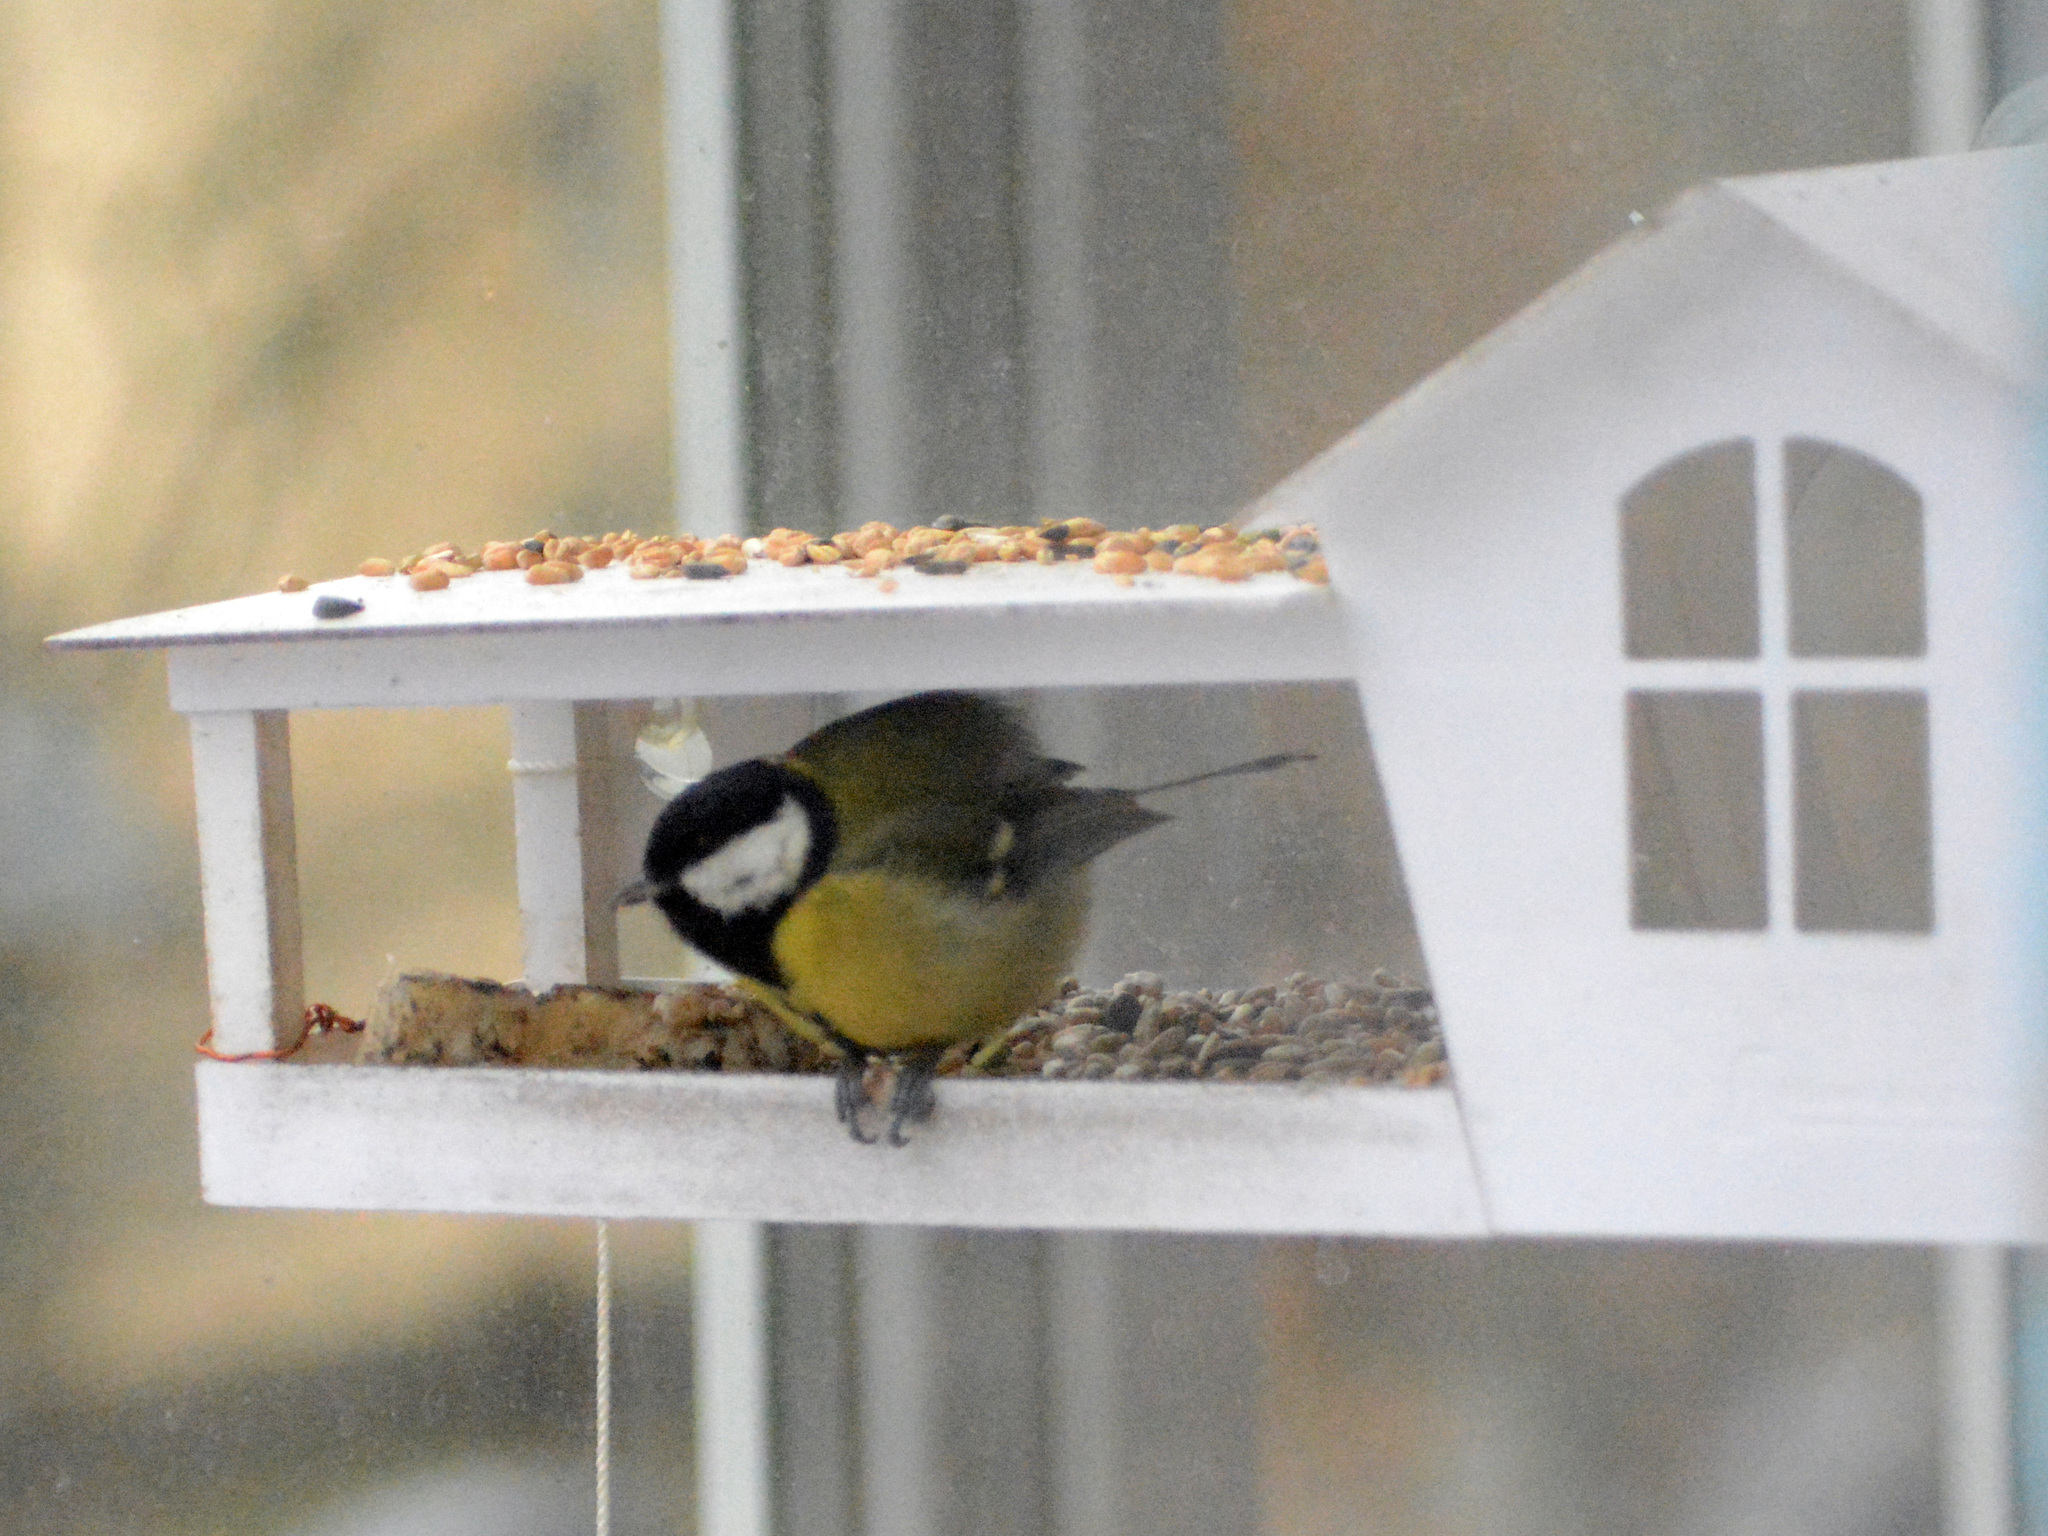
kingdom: Animalia
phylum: Chordata
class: Aves
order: Passeriformes
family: Paridae
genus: Parus
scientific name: Parus major
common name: Great tit
